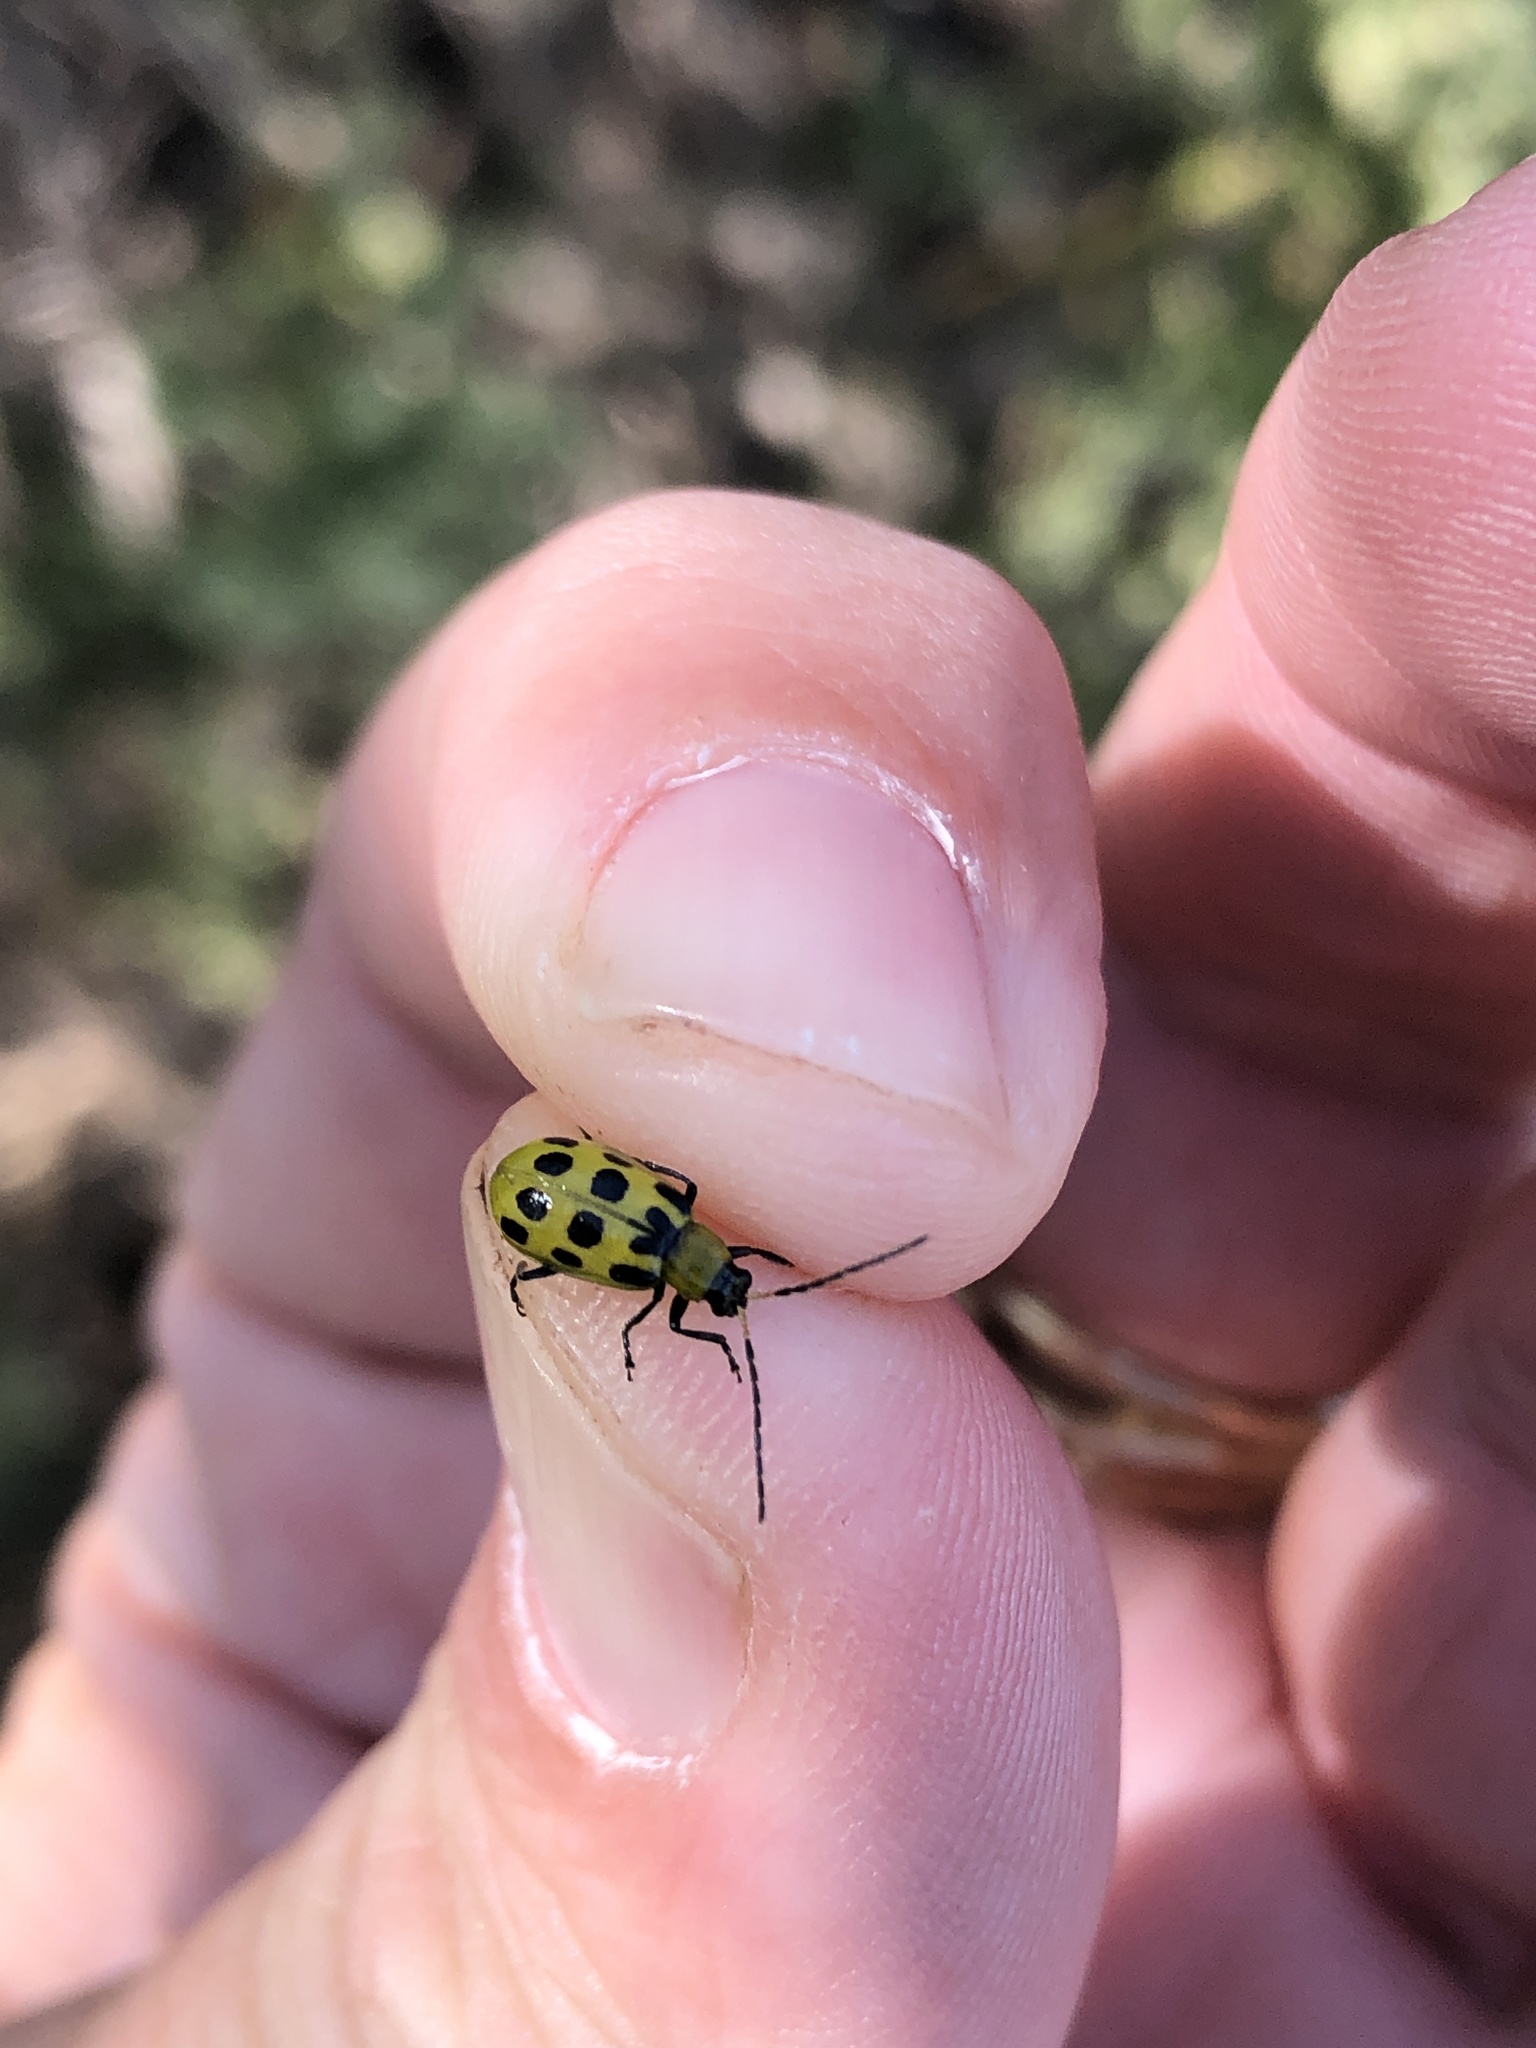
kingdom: Animalia
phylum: Arthropoda
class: Insecta
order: Coleoptera
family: Chrysomelidae
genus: Diabrotica
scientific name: Diabrotica undecimpunctata
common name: Spotted cucumber beetle
